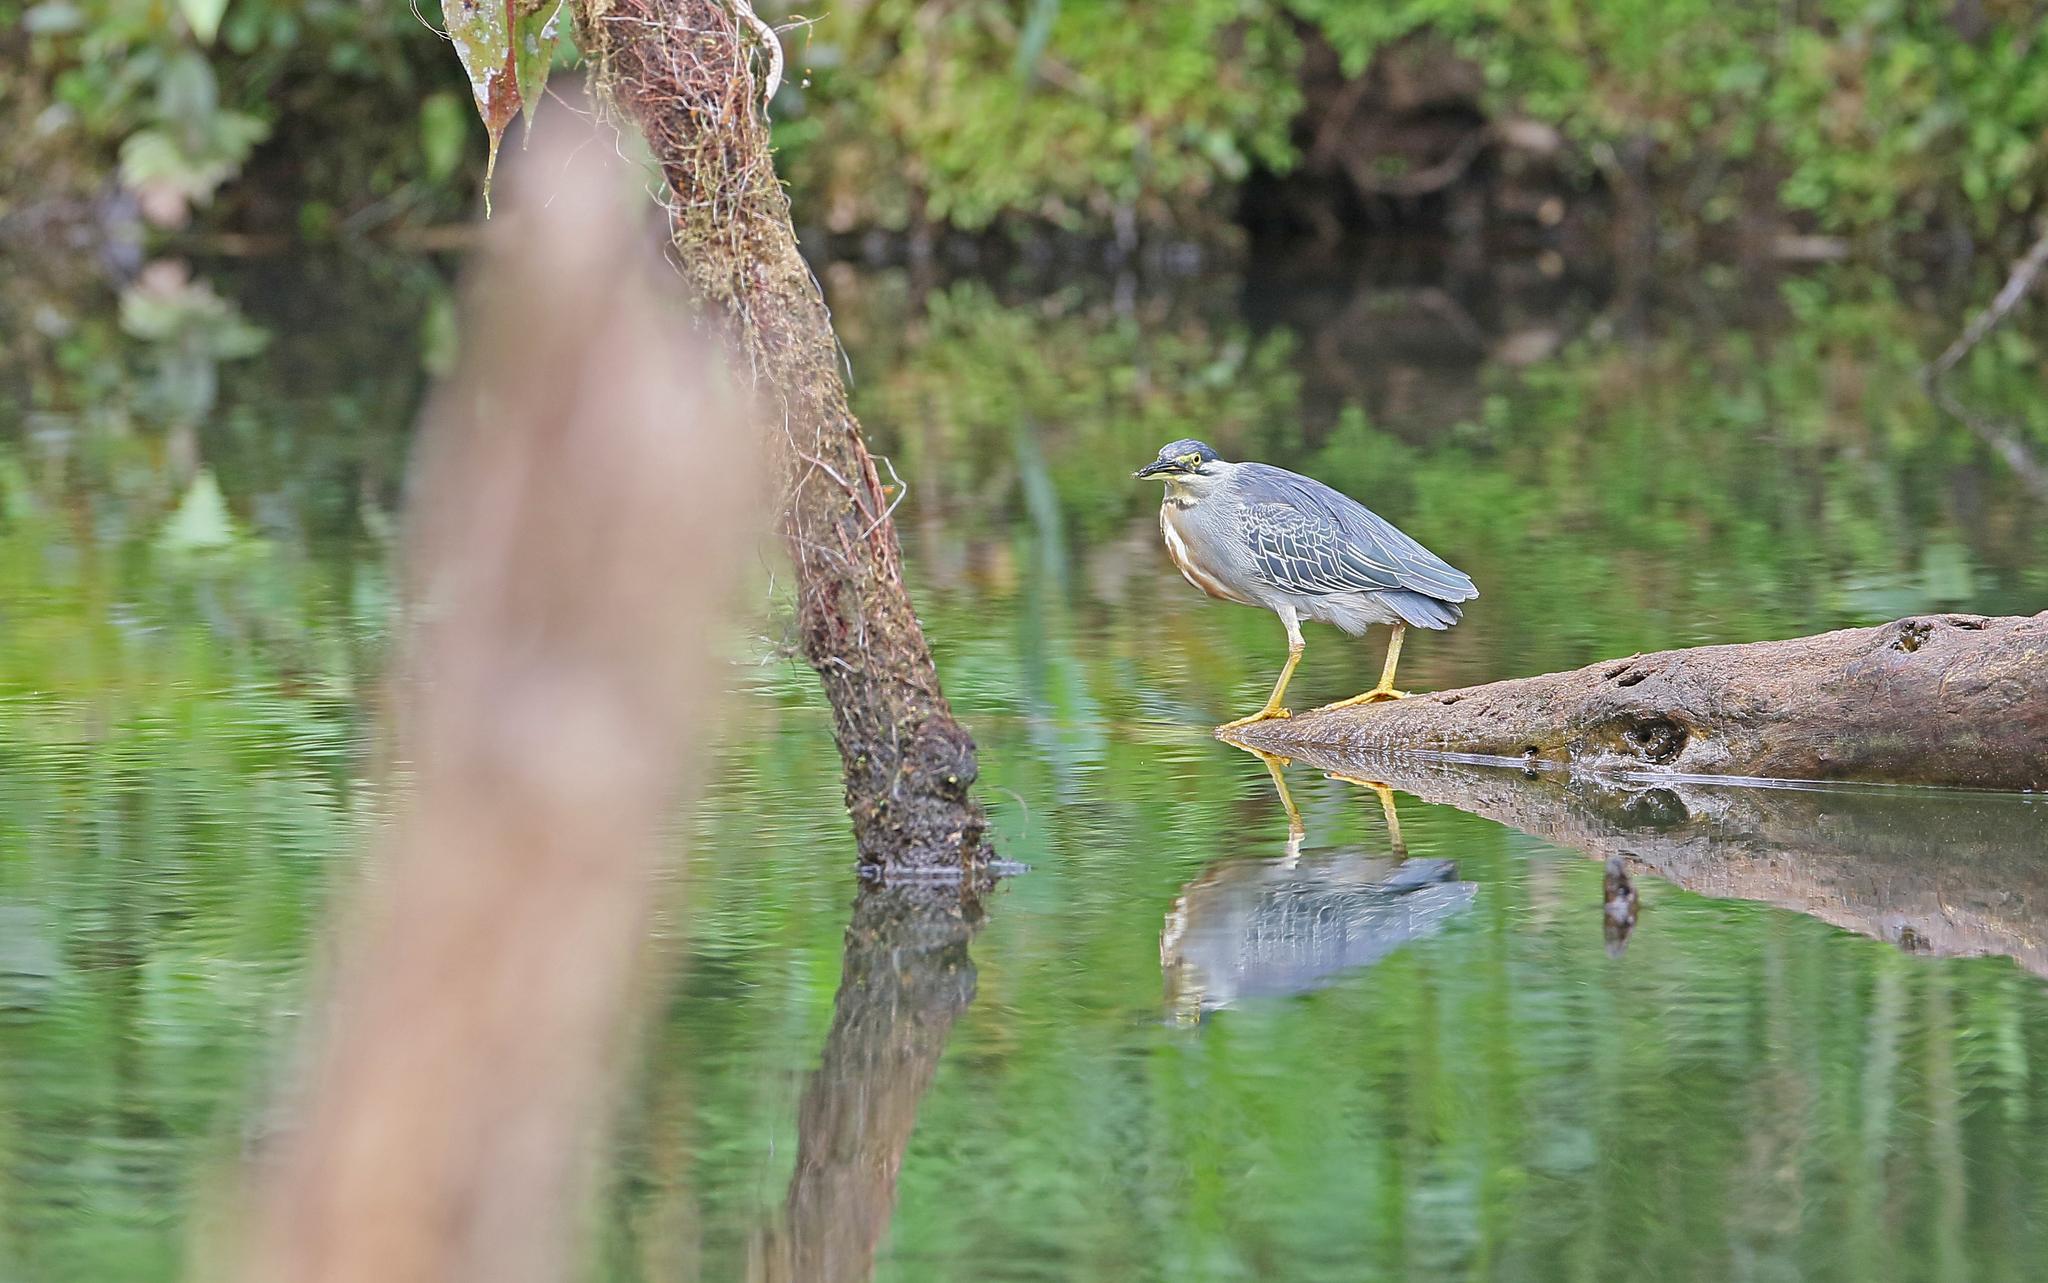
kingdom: Animalia
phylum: Chordata
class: Aves
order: Pelecaniformes
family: Ardeidae
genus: Butorides
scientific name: Butorides striata
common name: Striated heron
